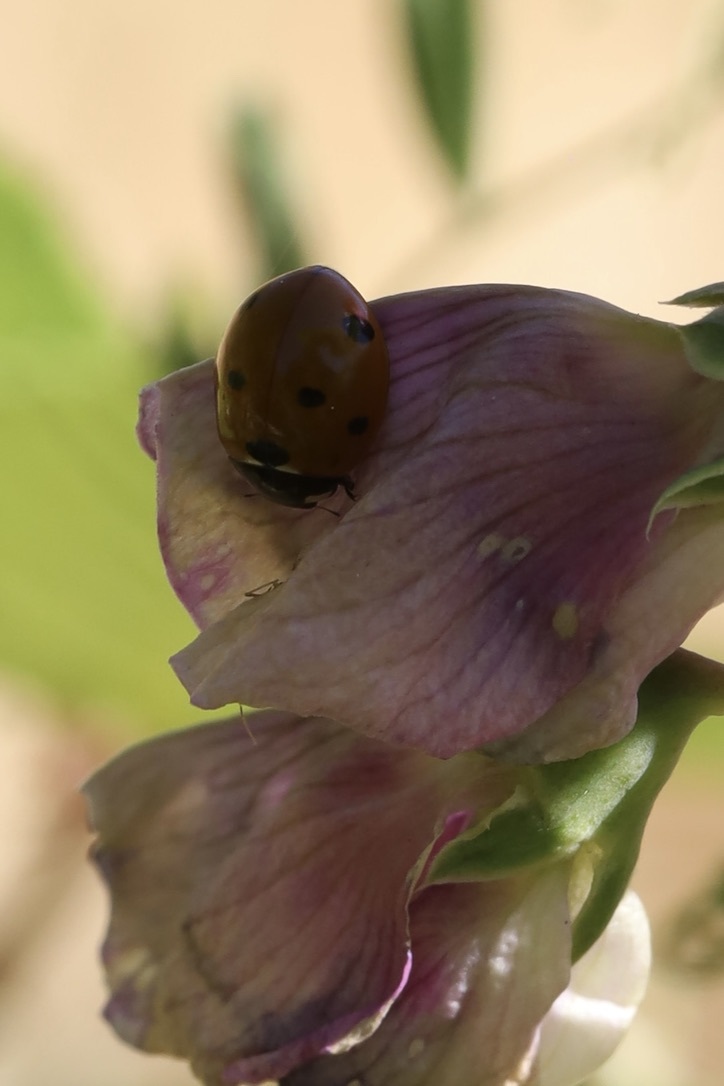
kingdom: Animalia
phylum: Arthropoda
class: Insecta
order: Coleoptera
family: Coccinellidae
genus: Coccinella
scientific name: Coccinella septempunctata
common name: Sevenspotted lady beetle
